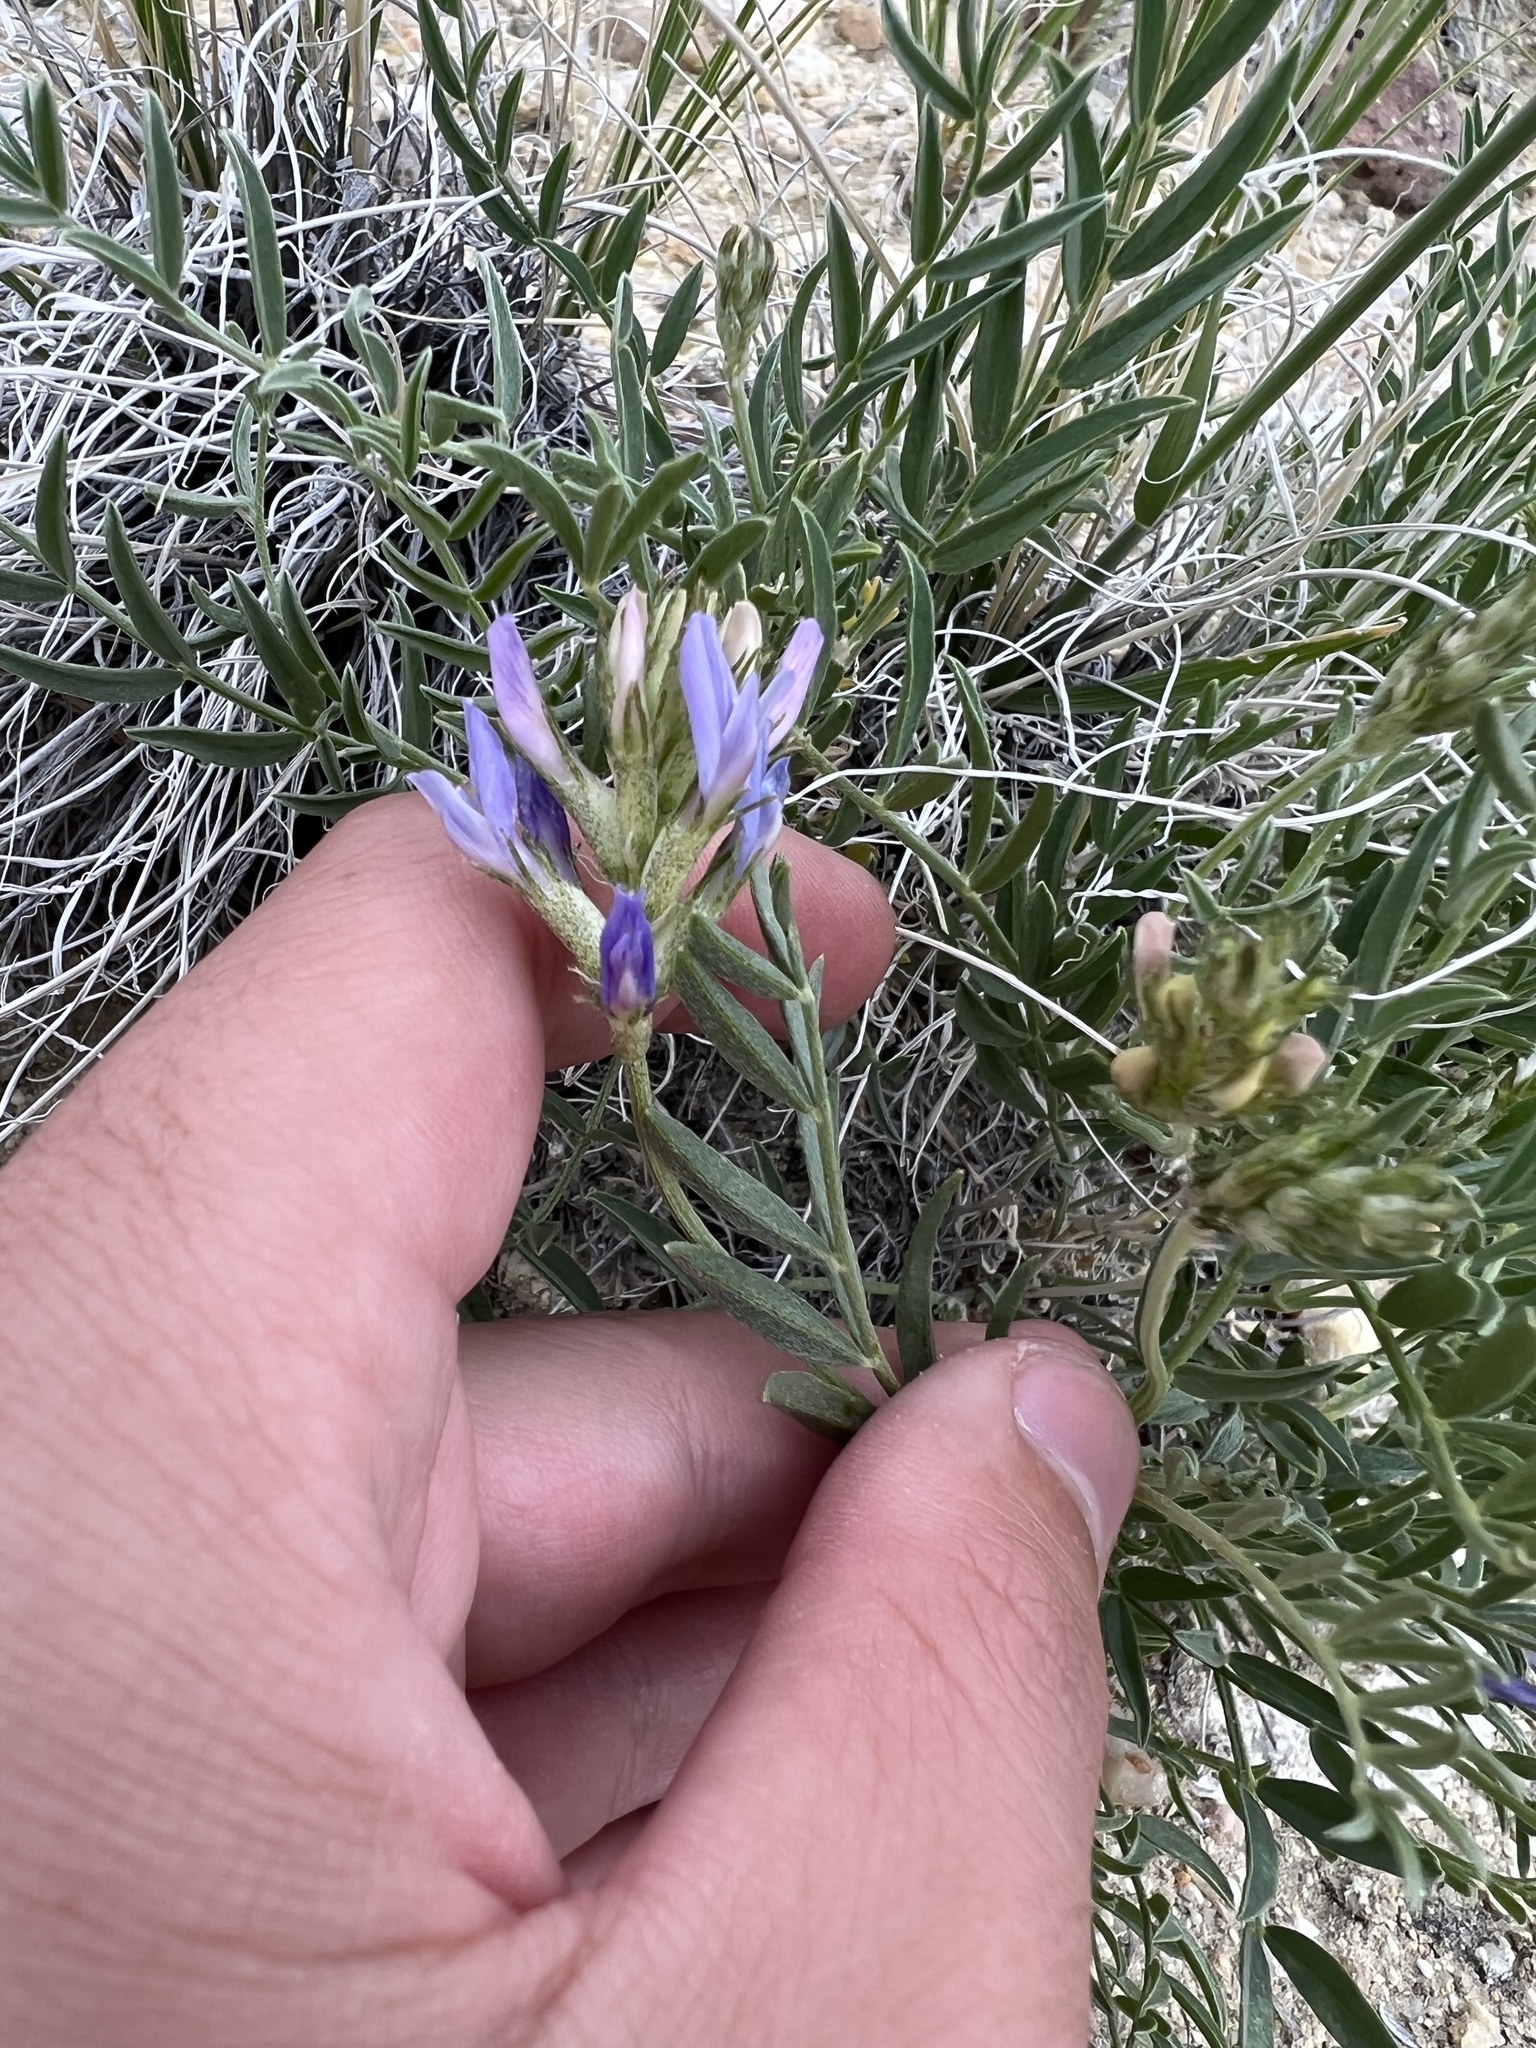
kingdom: Plantae
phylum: Tracheophyta
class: Magnoliopsida
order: Fabales
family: Fabaceae
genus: Astragalus
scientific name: Astragalus laxmannii
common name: Laxmann's milk-vetch
